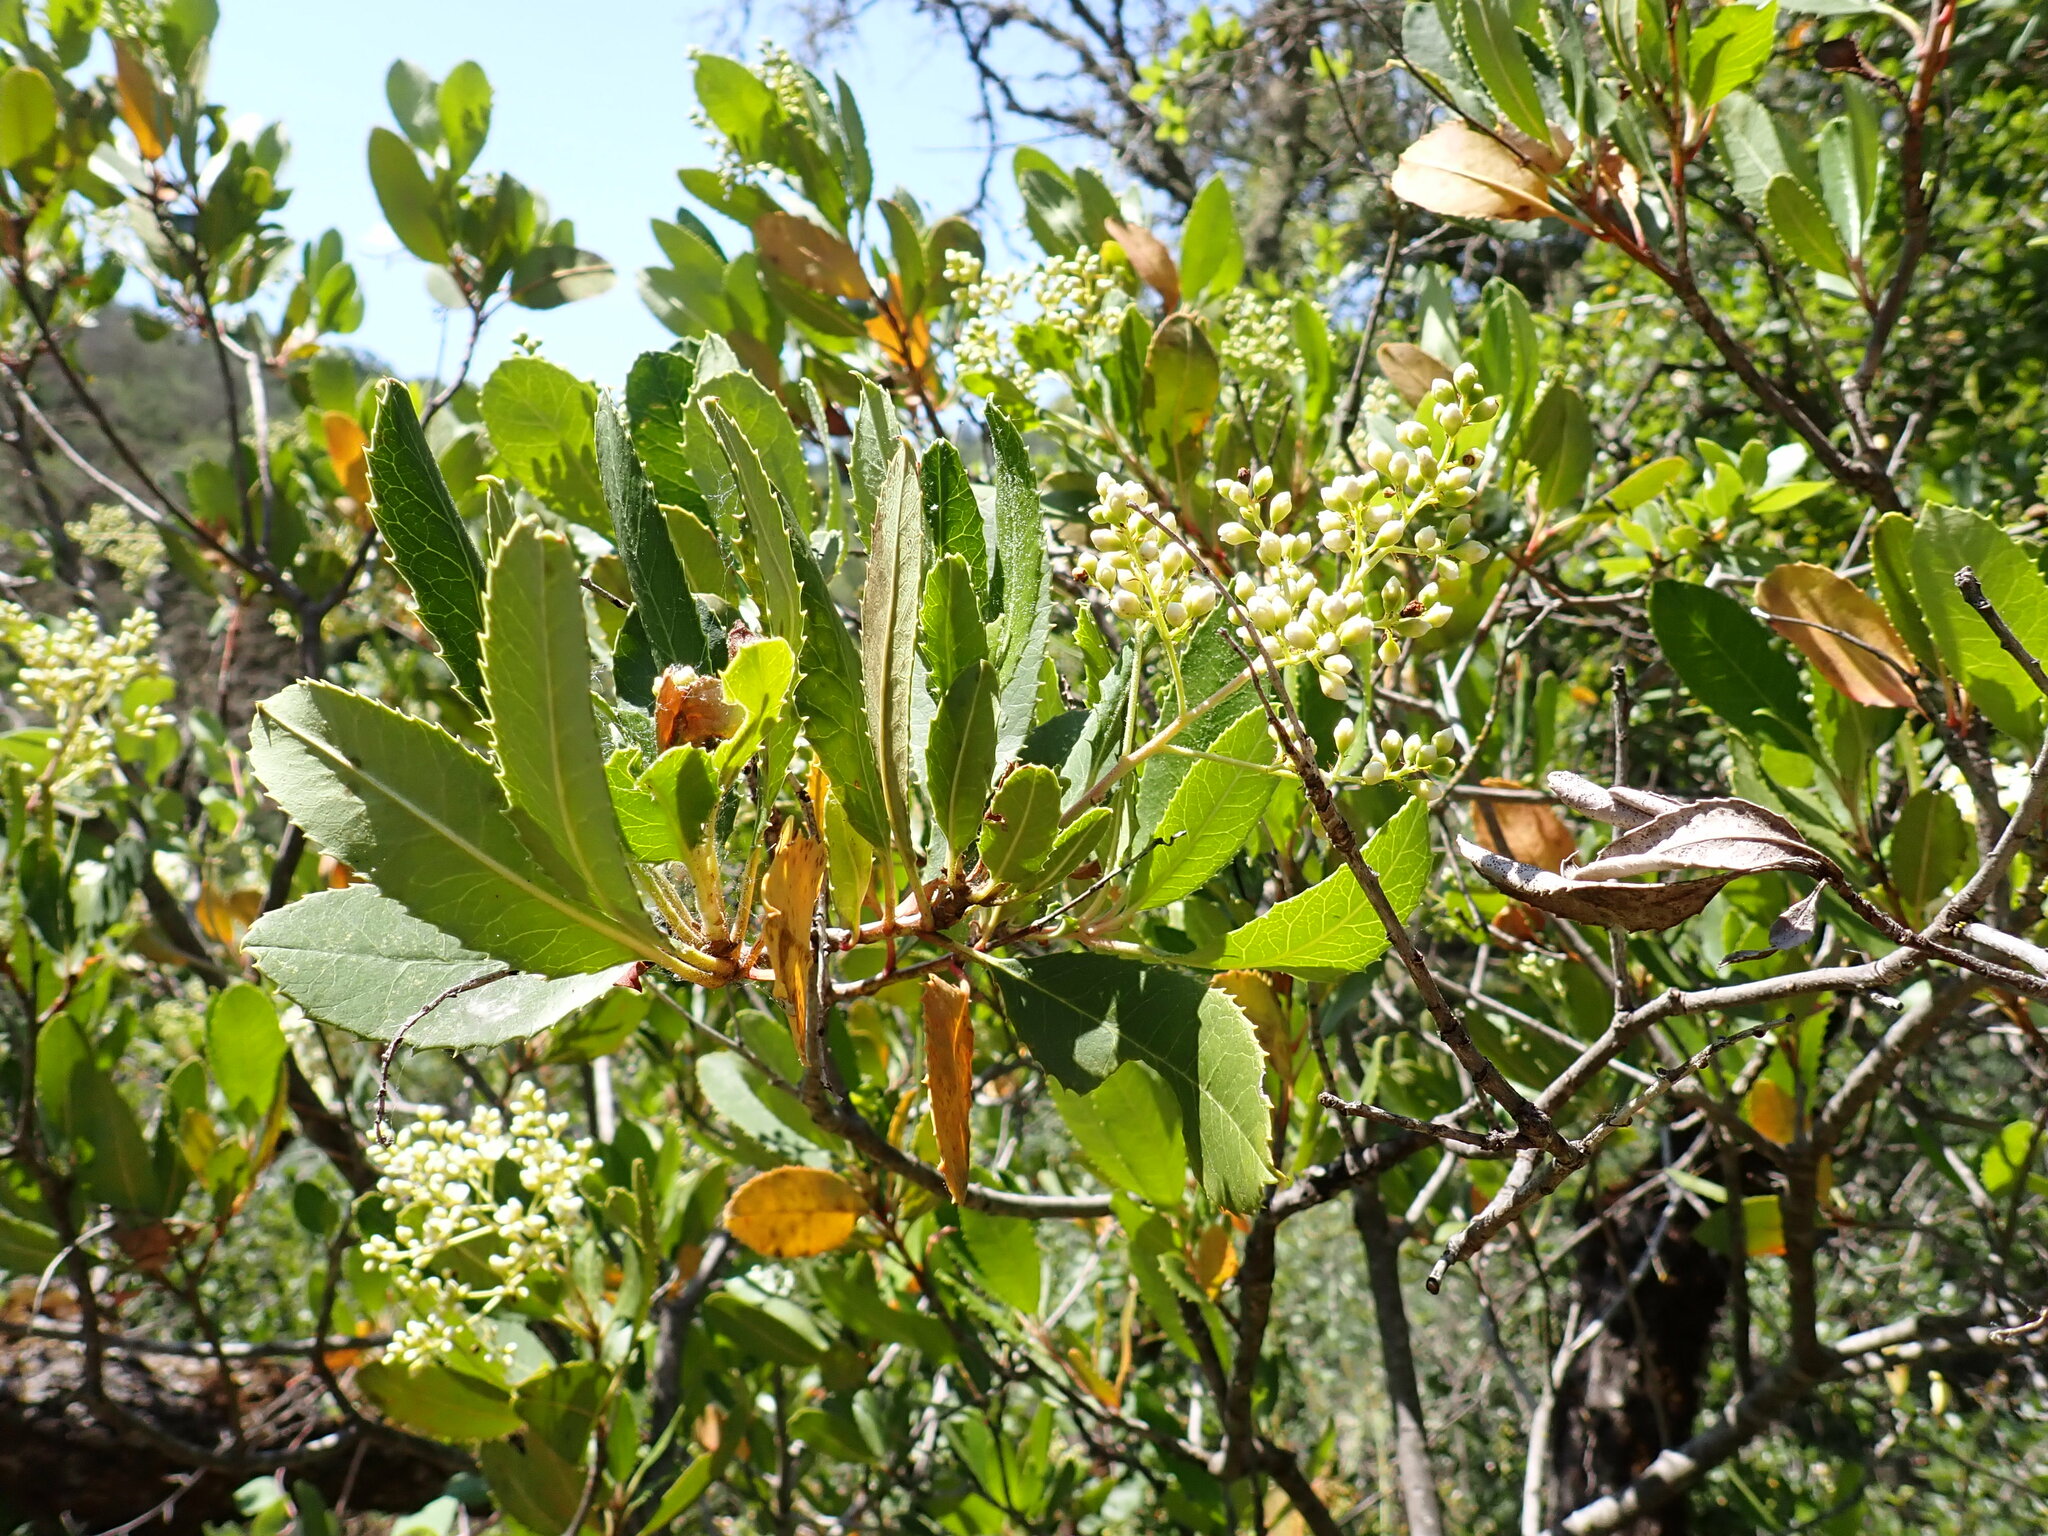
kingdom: Plantae
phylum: Tracheophyta
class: Magnoliopsida
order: Rosales
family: Rosaceae
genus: Heteromeles
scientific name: Heteromeles arbutifolia
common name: California-holly
